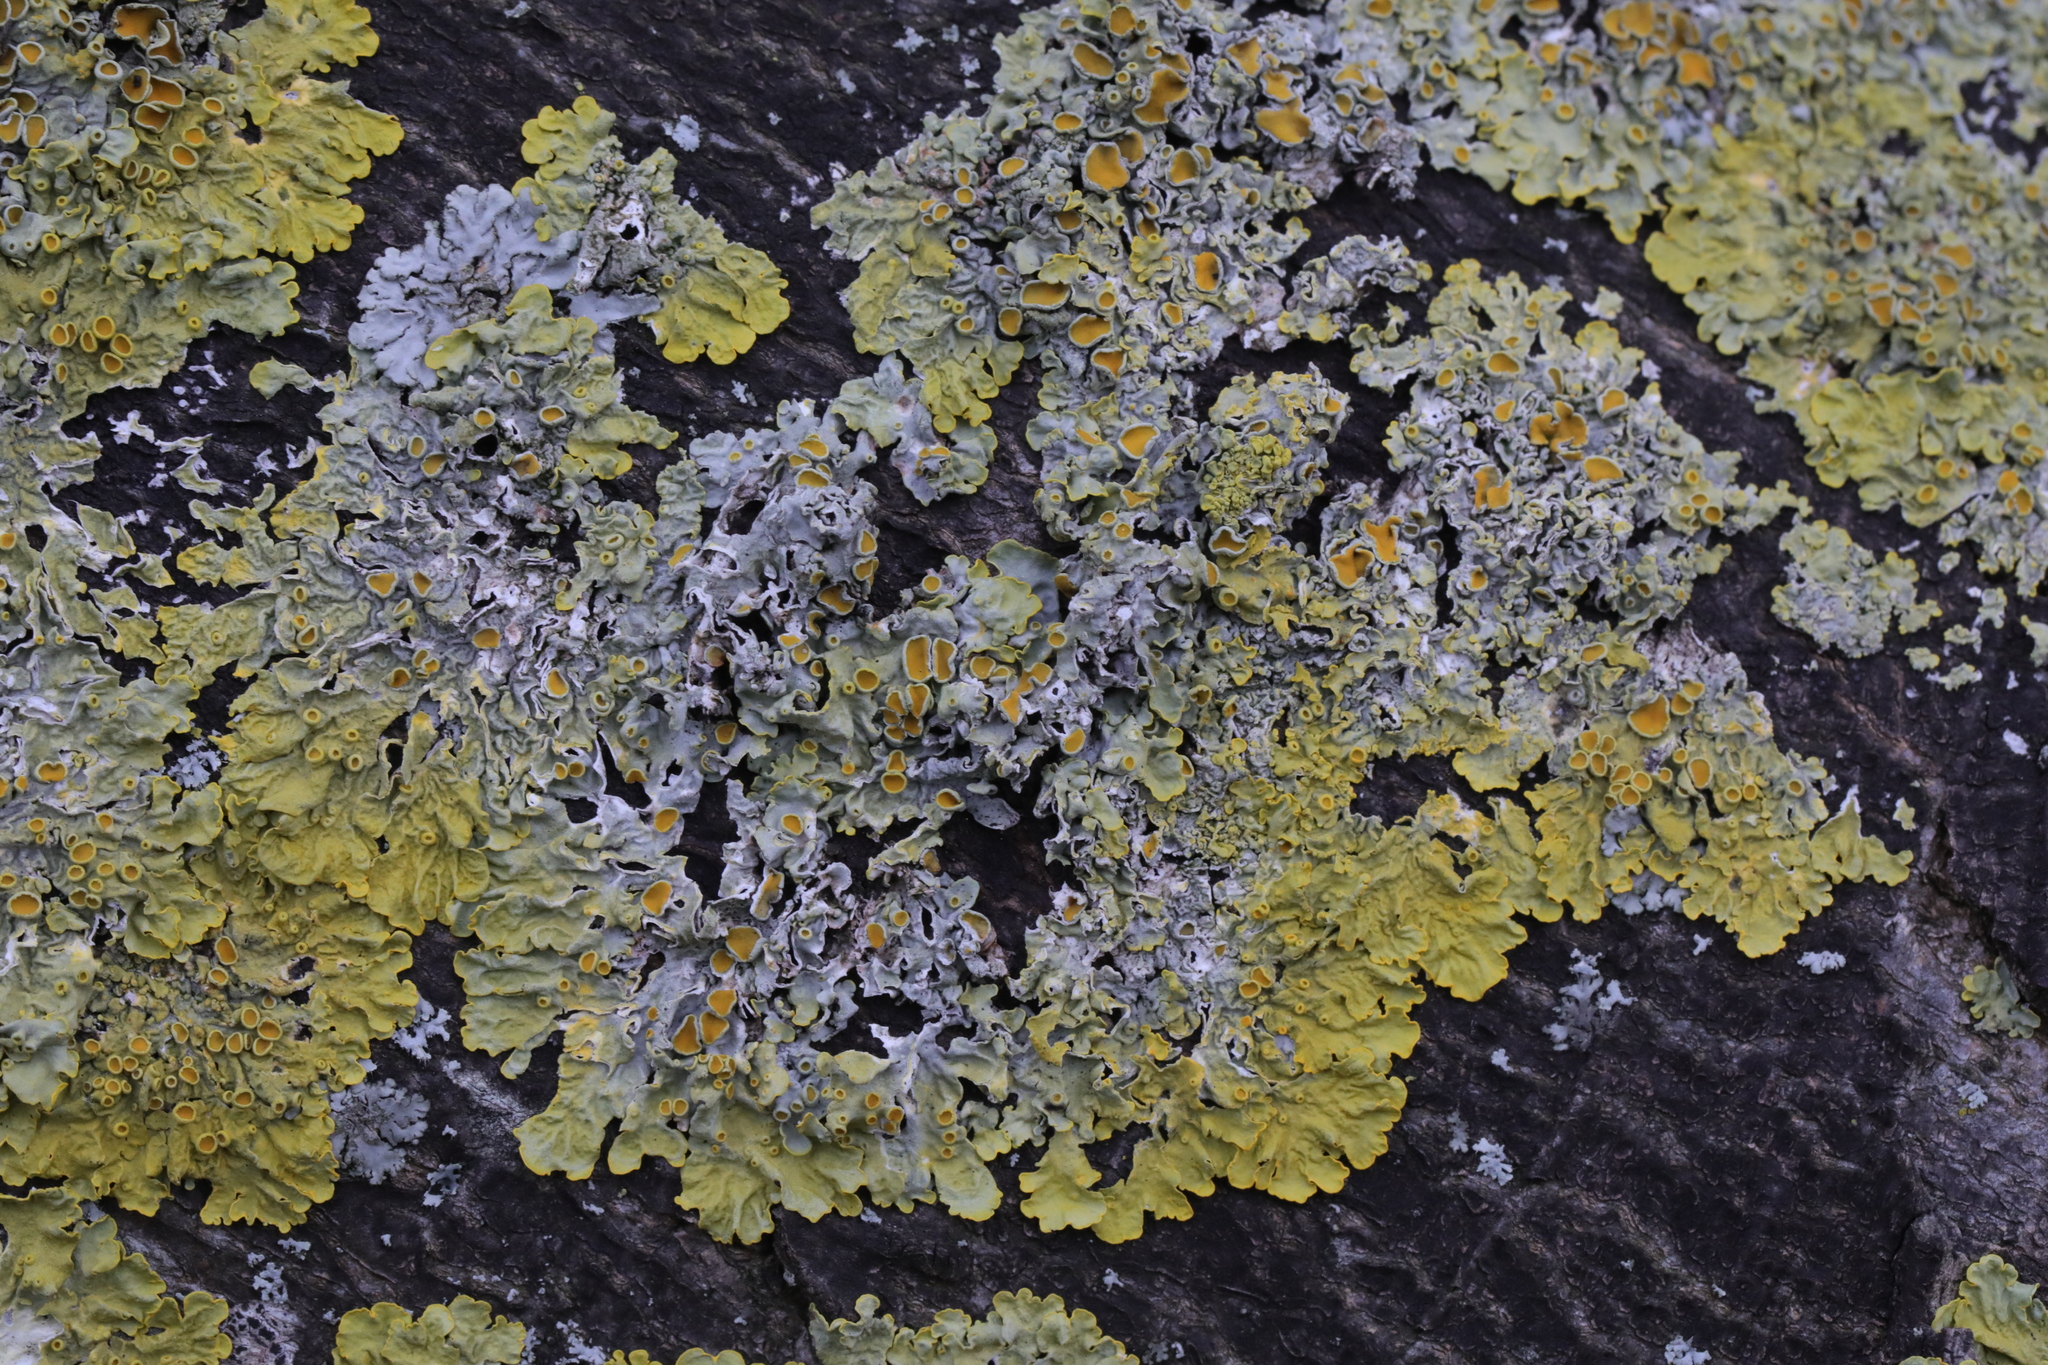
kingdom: Fungi
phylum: Ascomycota
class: Lecanoromycetes
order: Teloschistales
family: Teloschistaceae
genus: Xanthoria
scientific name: Xanthoria parietina
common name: Common orange lichen
